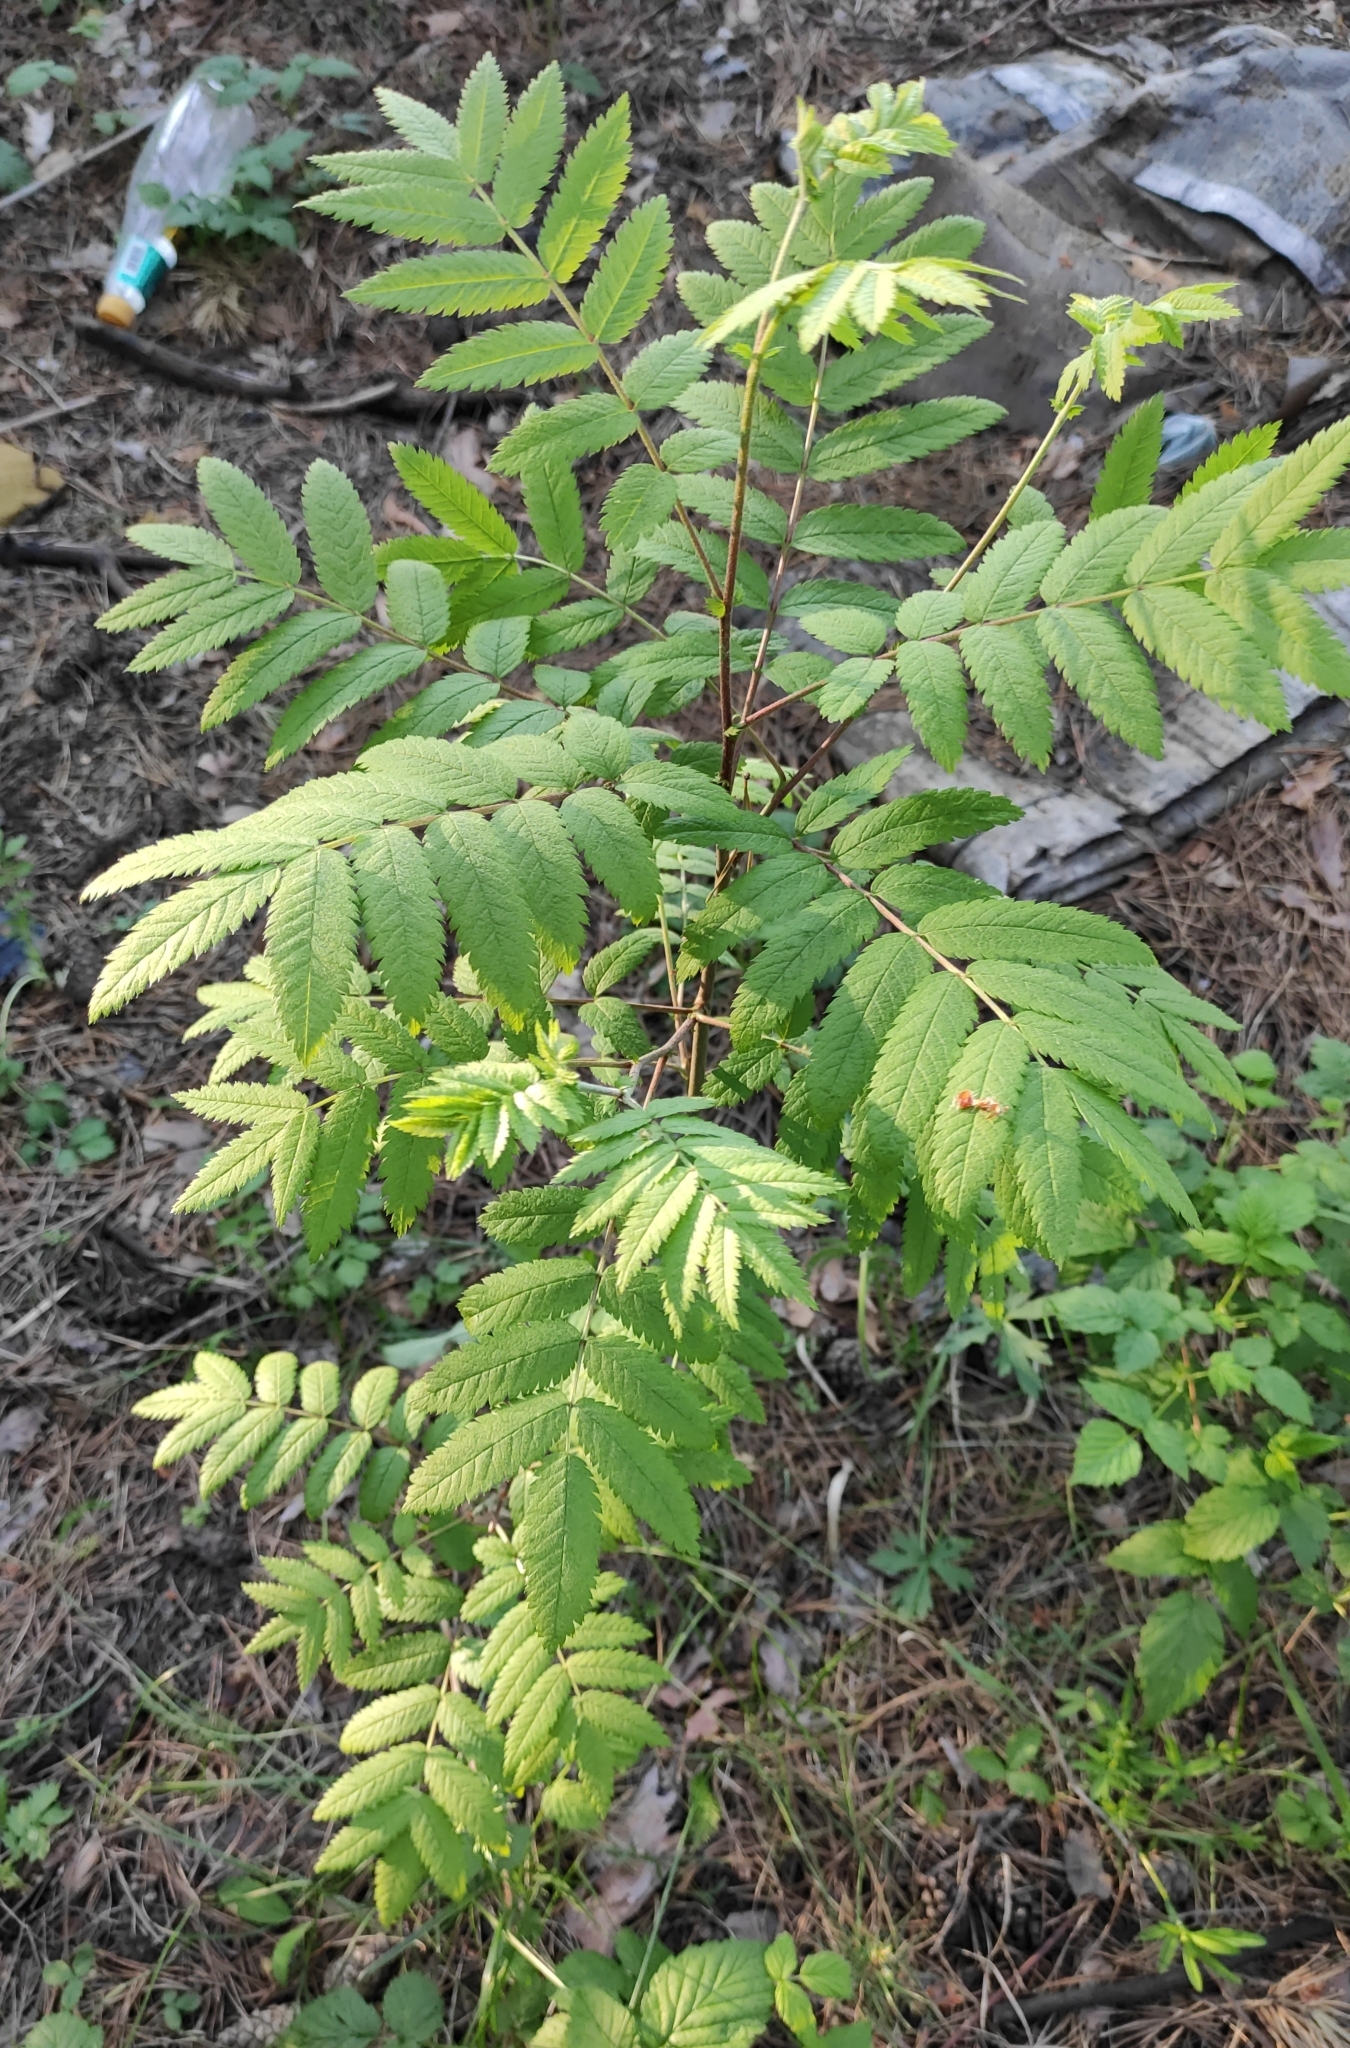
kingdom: Plantae
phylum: Tracheophyta
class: Magnoliopsida
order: Rosales
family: Rosaceae
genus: Sorbus
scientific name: Sorbus aucuparia
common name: Rowan
